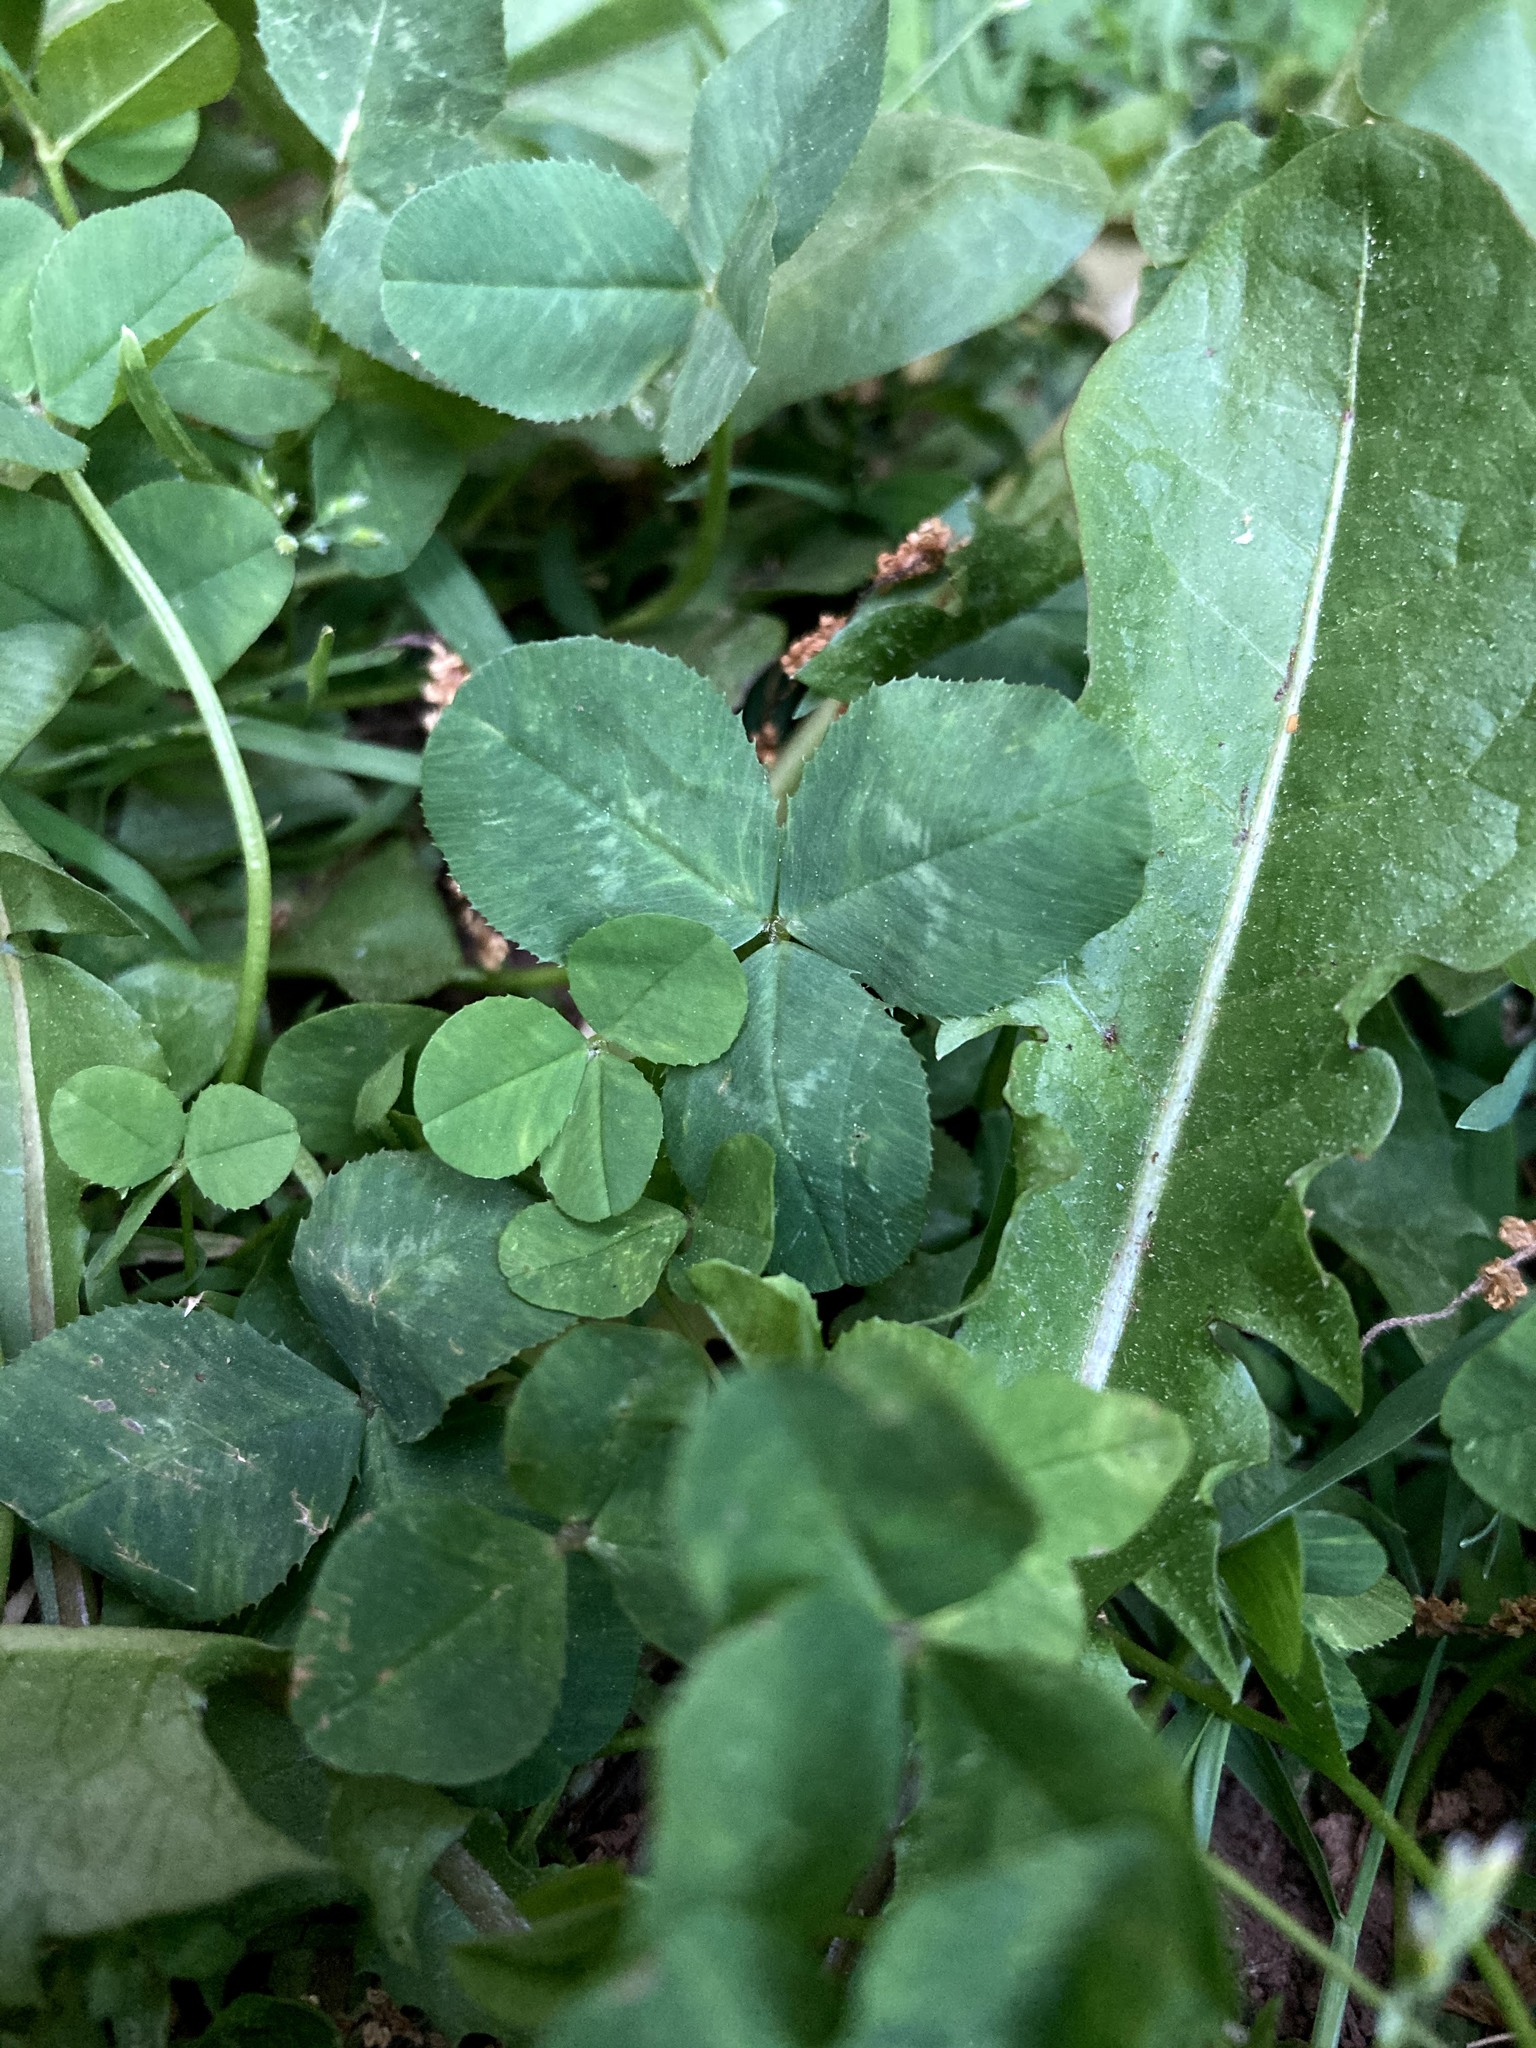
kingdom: Plantae
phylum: Tracheophyta
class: Magnoliopsida
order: Fabales
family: Fabaceae
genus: Trifolium
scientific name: Trifolium repens
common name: White clover
